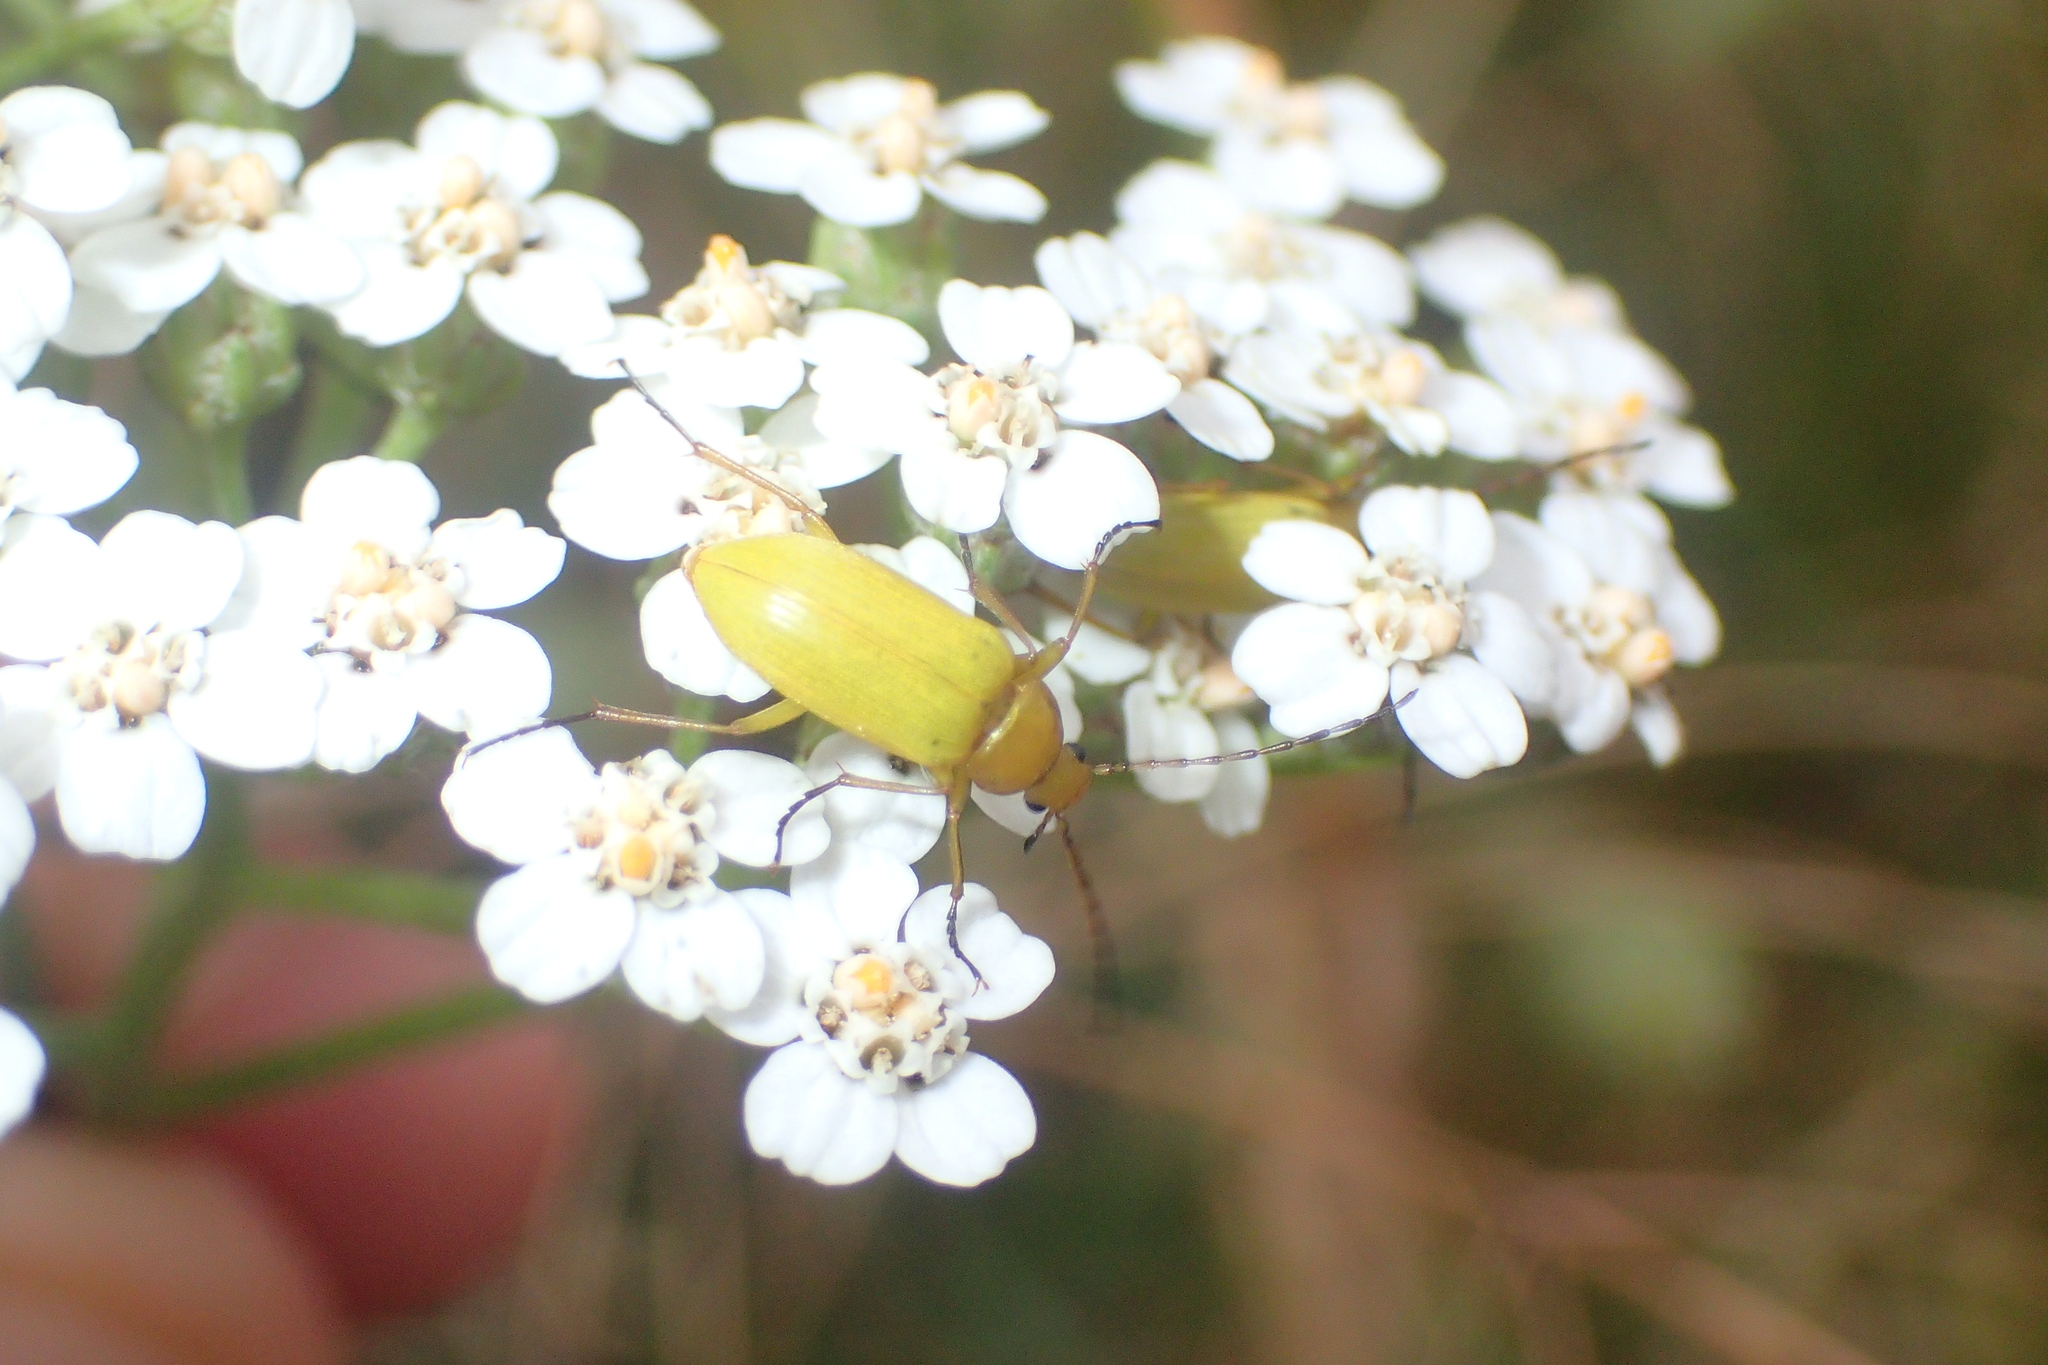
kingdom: Animalia
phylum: Arthropoda
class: Insecta
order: Coleoptera
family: Tenebrionidae
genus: Cteniopus
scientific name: Cteniopus sulphureus
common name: Sulphur beetle
